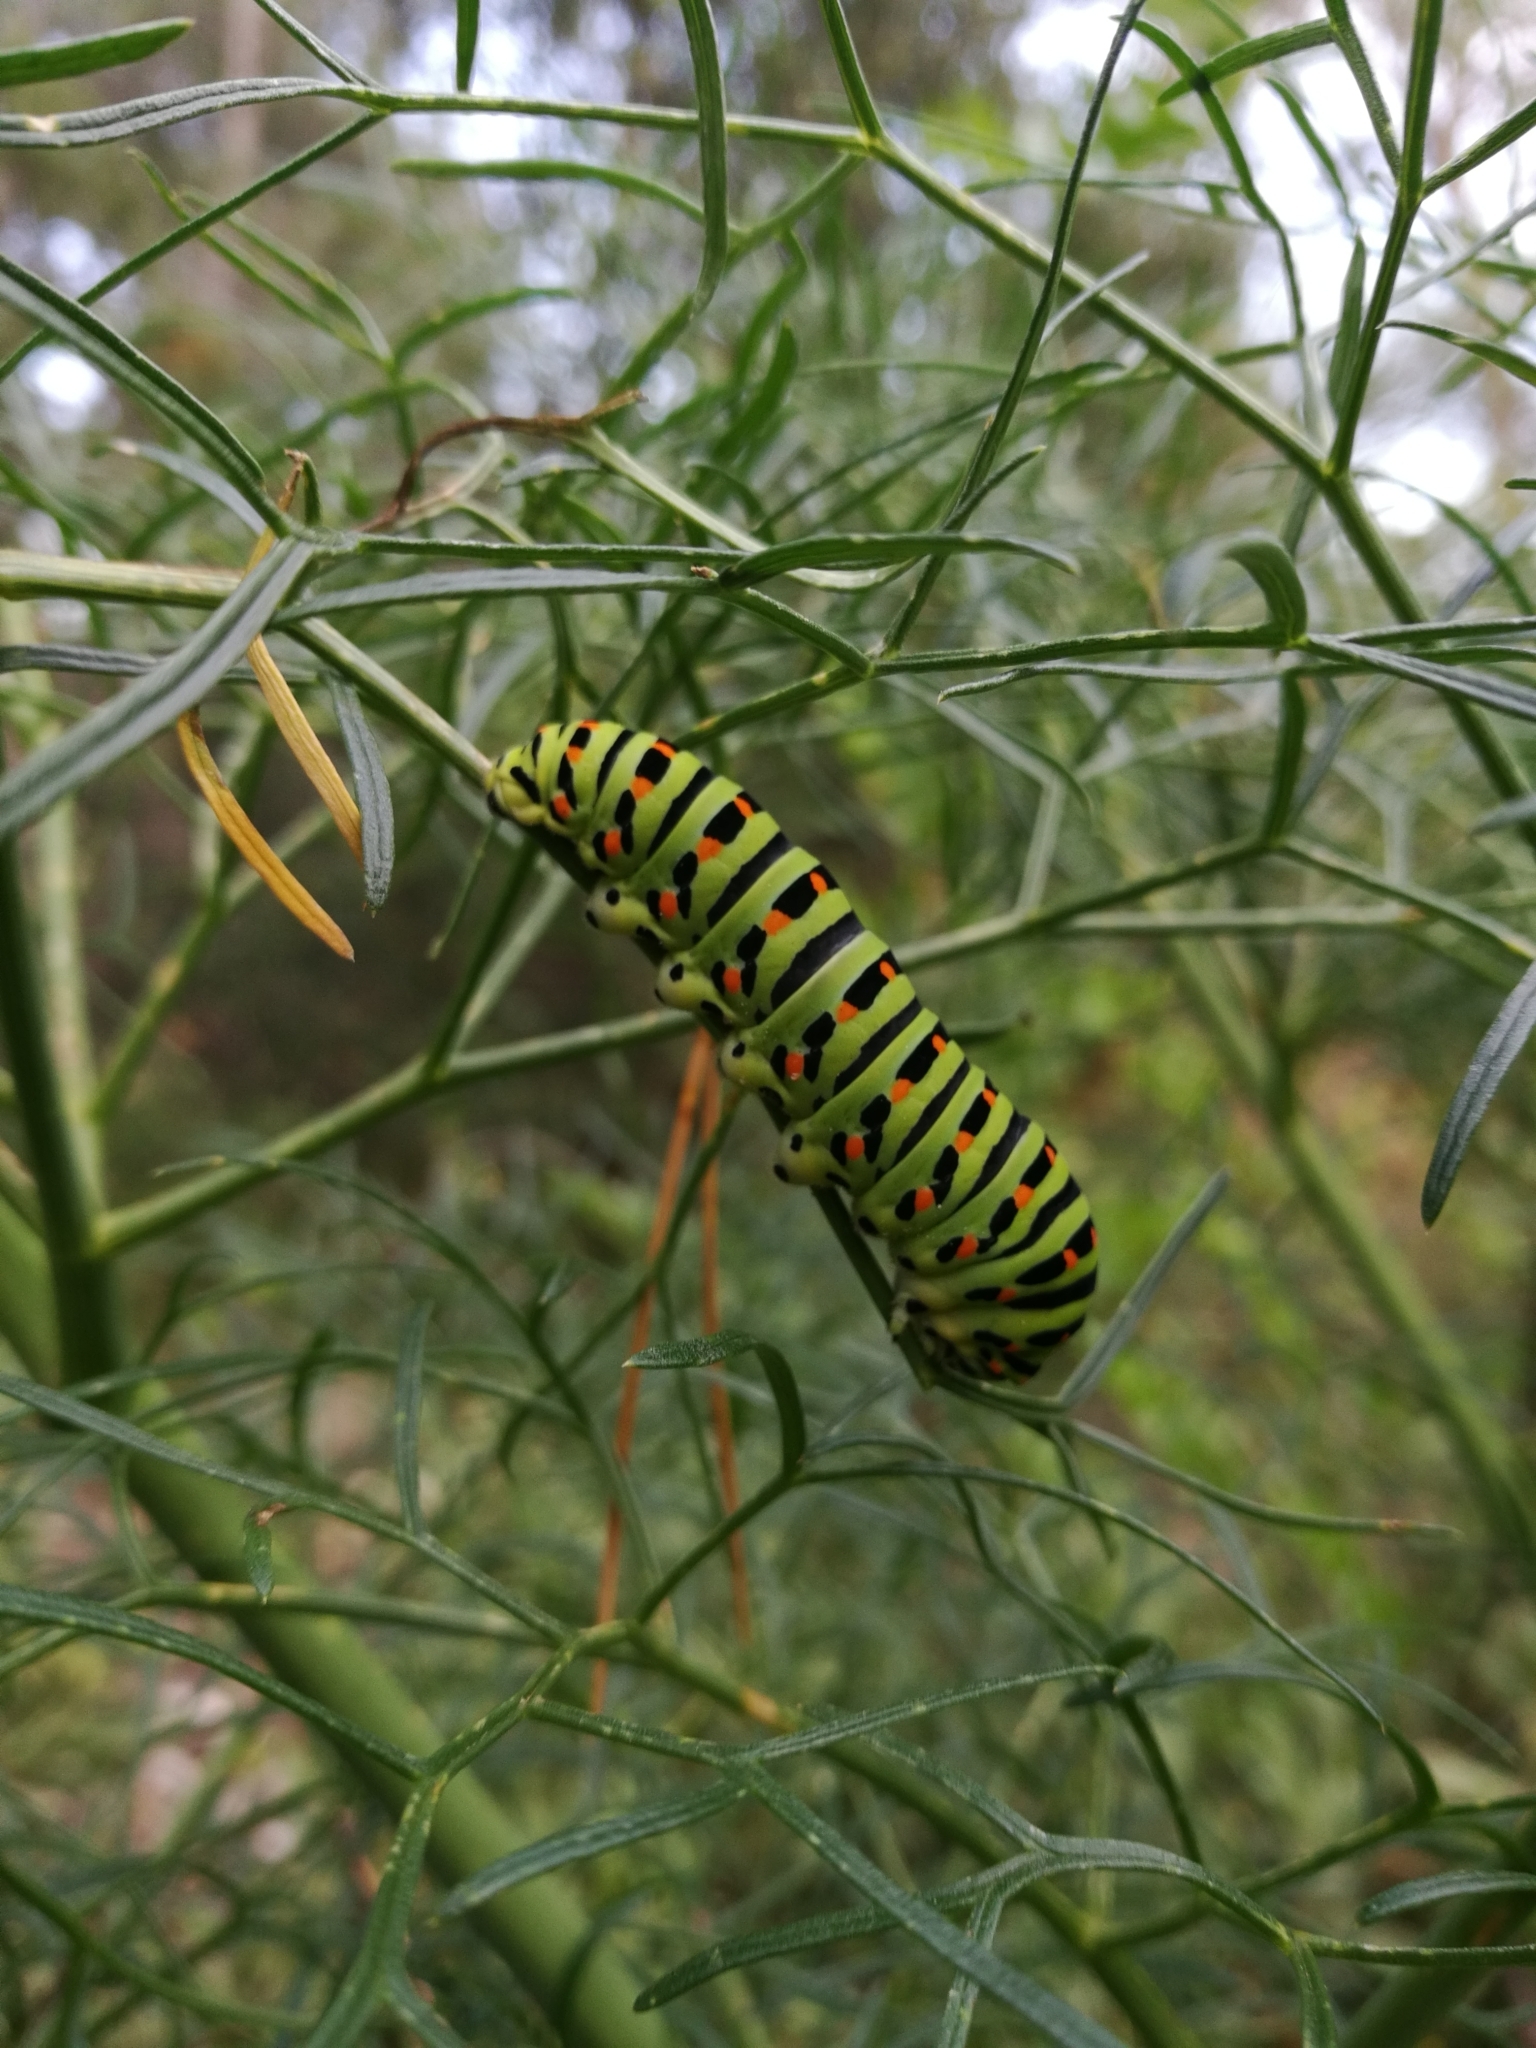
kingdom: Animalia
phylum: Arthropoda
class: Insecta
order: Lepidoptera
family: Papilionidae
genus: Papilio
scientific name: Papilio machaon
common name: Swallowtail
